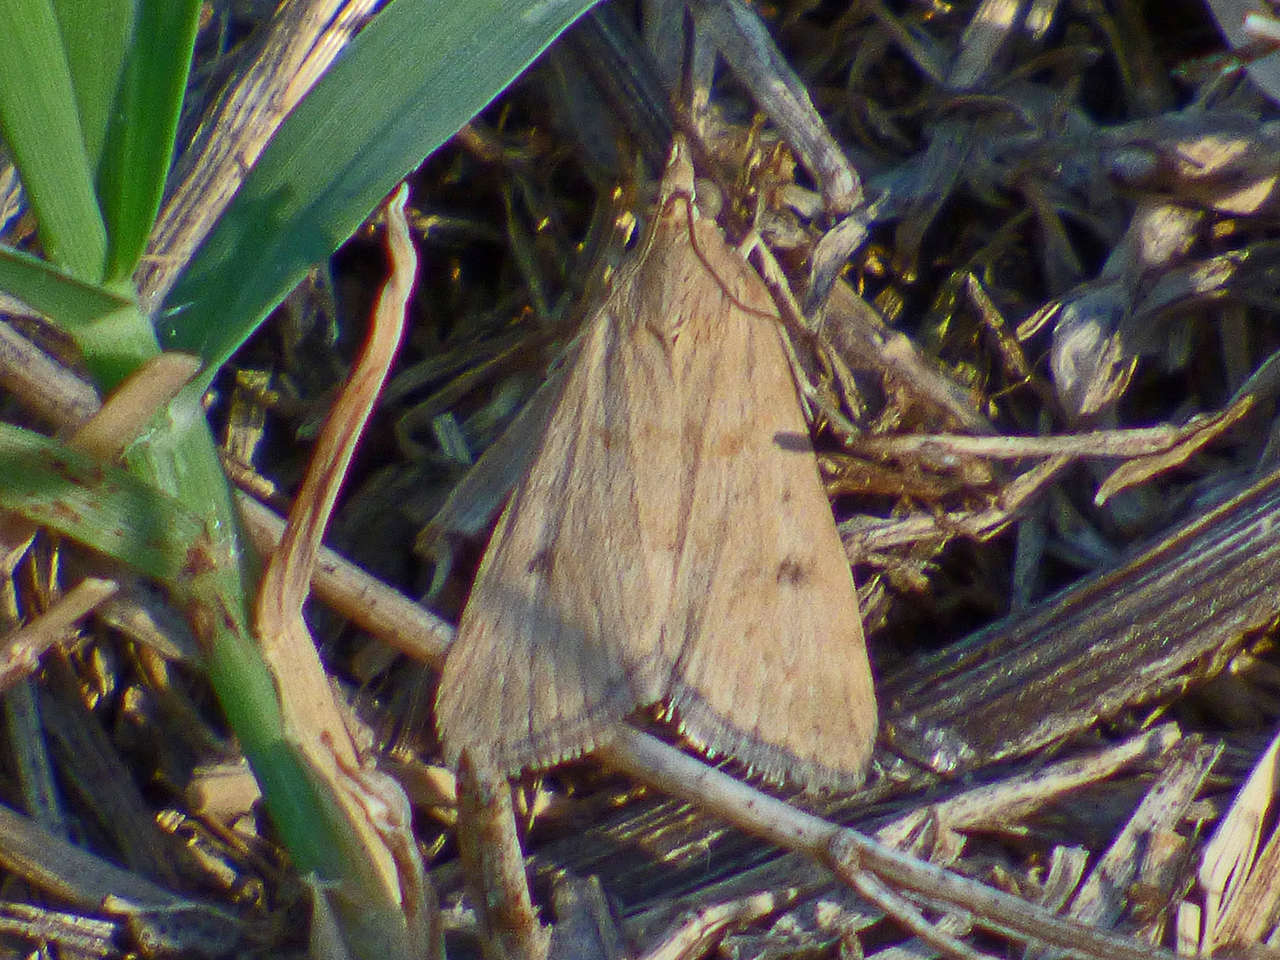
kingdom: Animalia
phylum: Arthropoda
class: Insecta
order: Lepidoptera
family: Crambidae
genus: Achyra
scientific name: Achyra affinitalis
